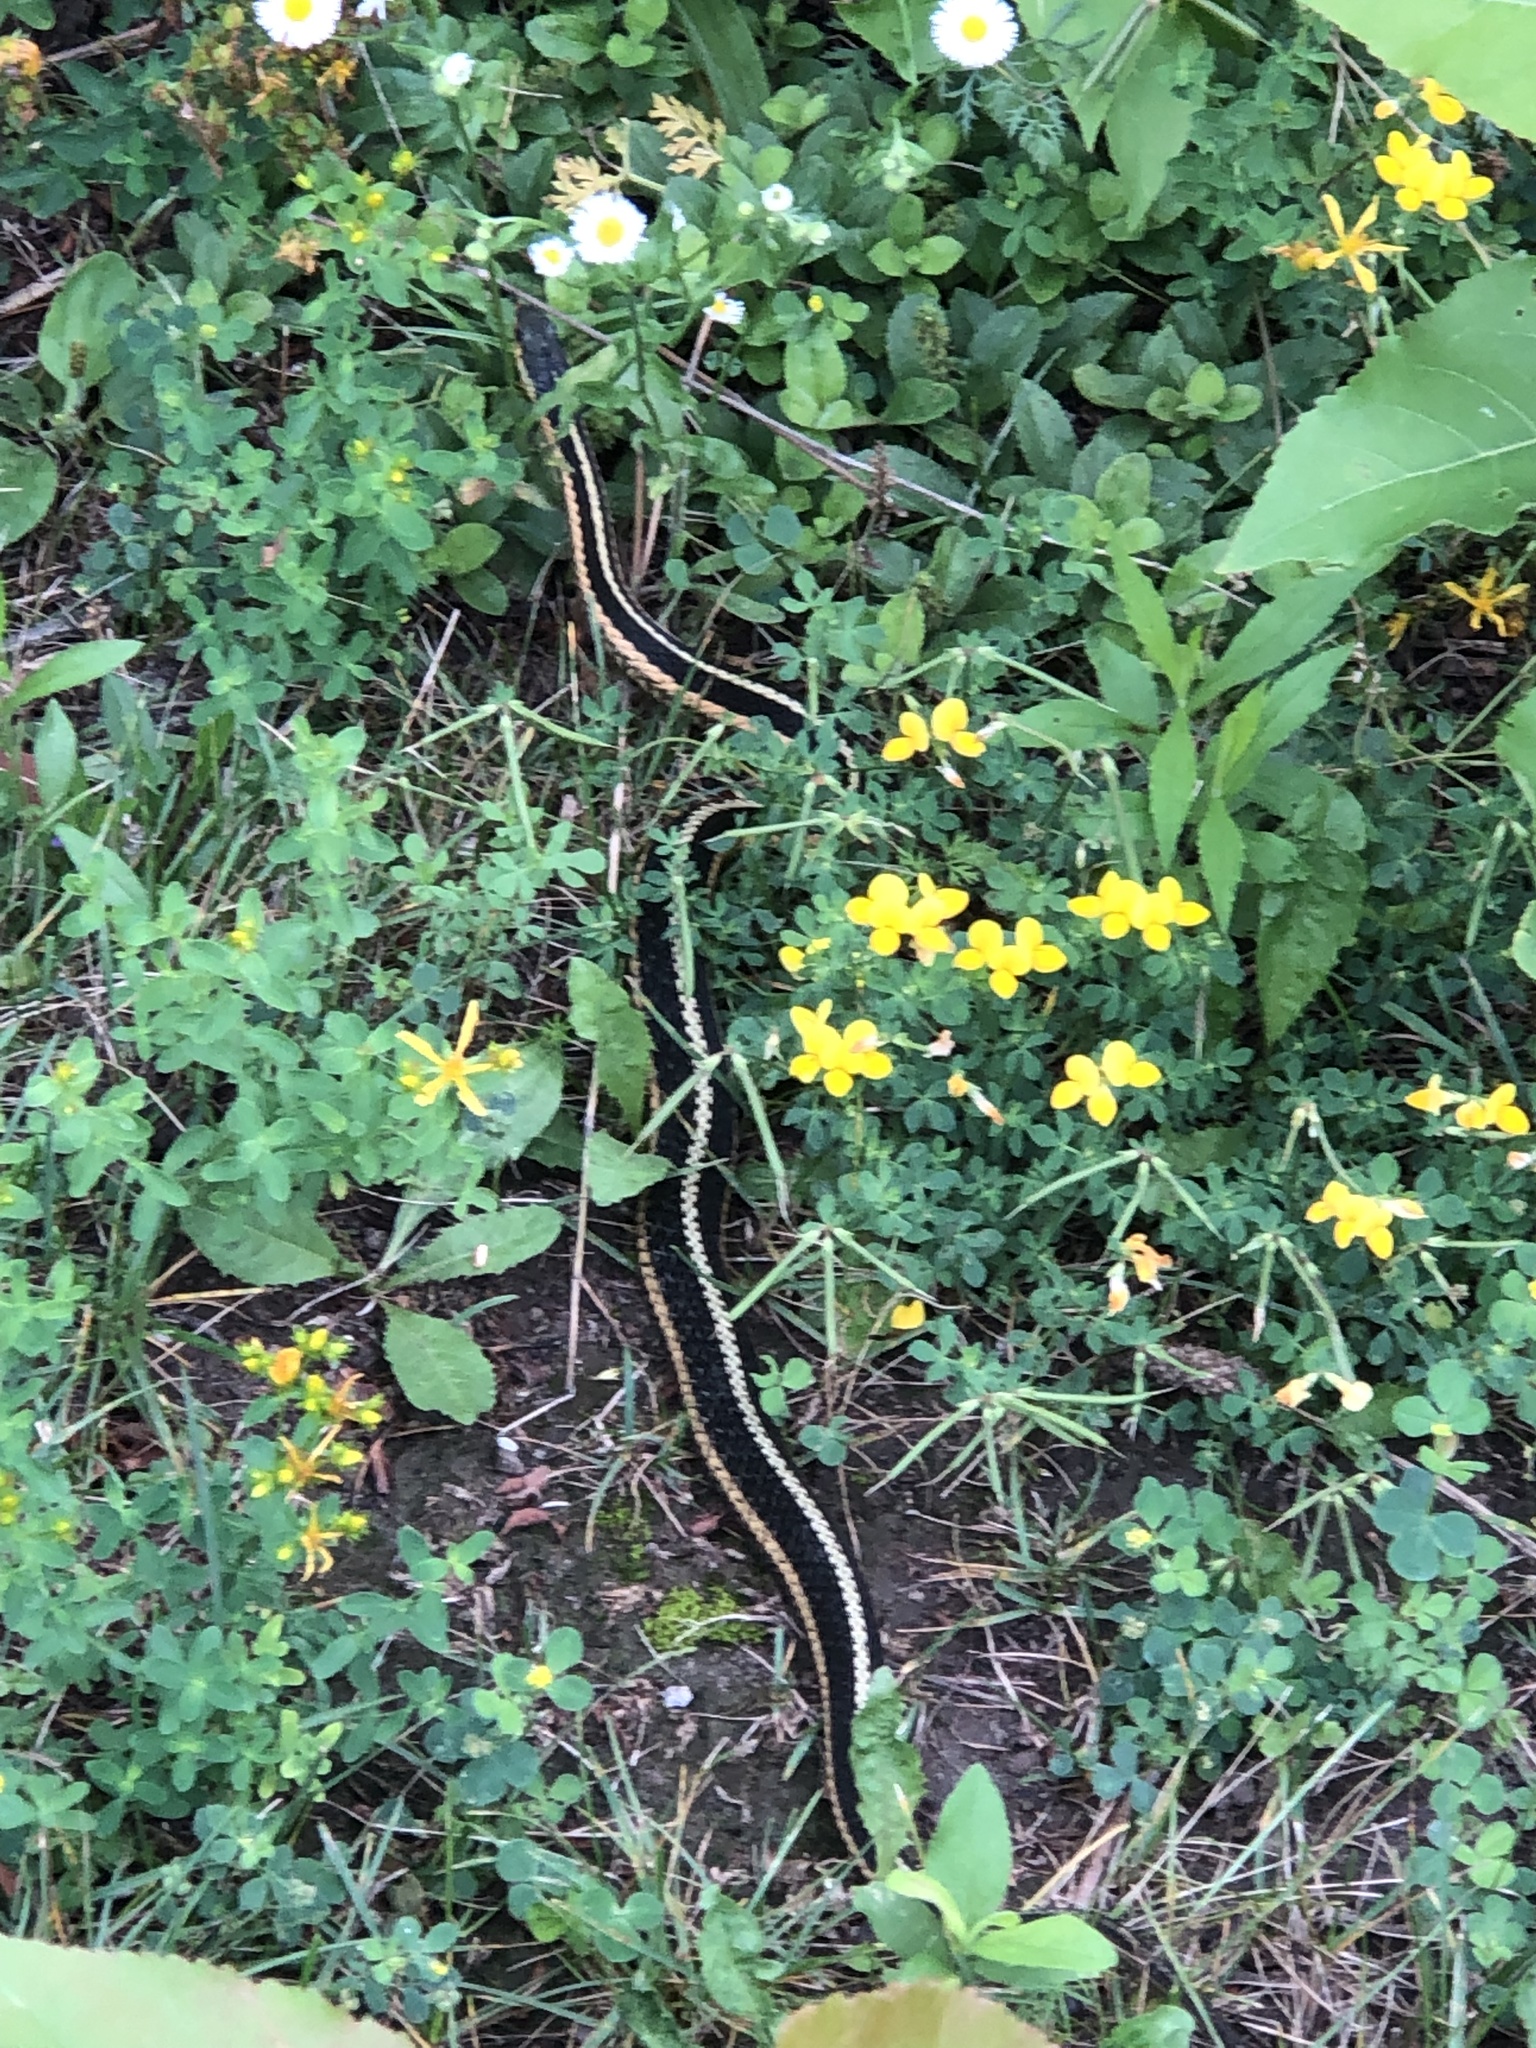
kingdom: Animalia
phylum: Chordata
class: Squamata
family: Colubridae
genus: Thamnophis
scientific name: Thamnophis sirtalis
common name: Common garter snake
